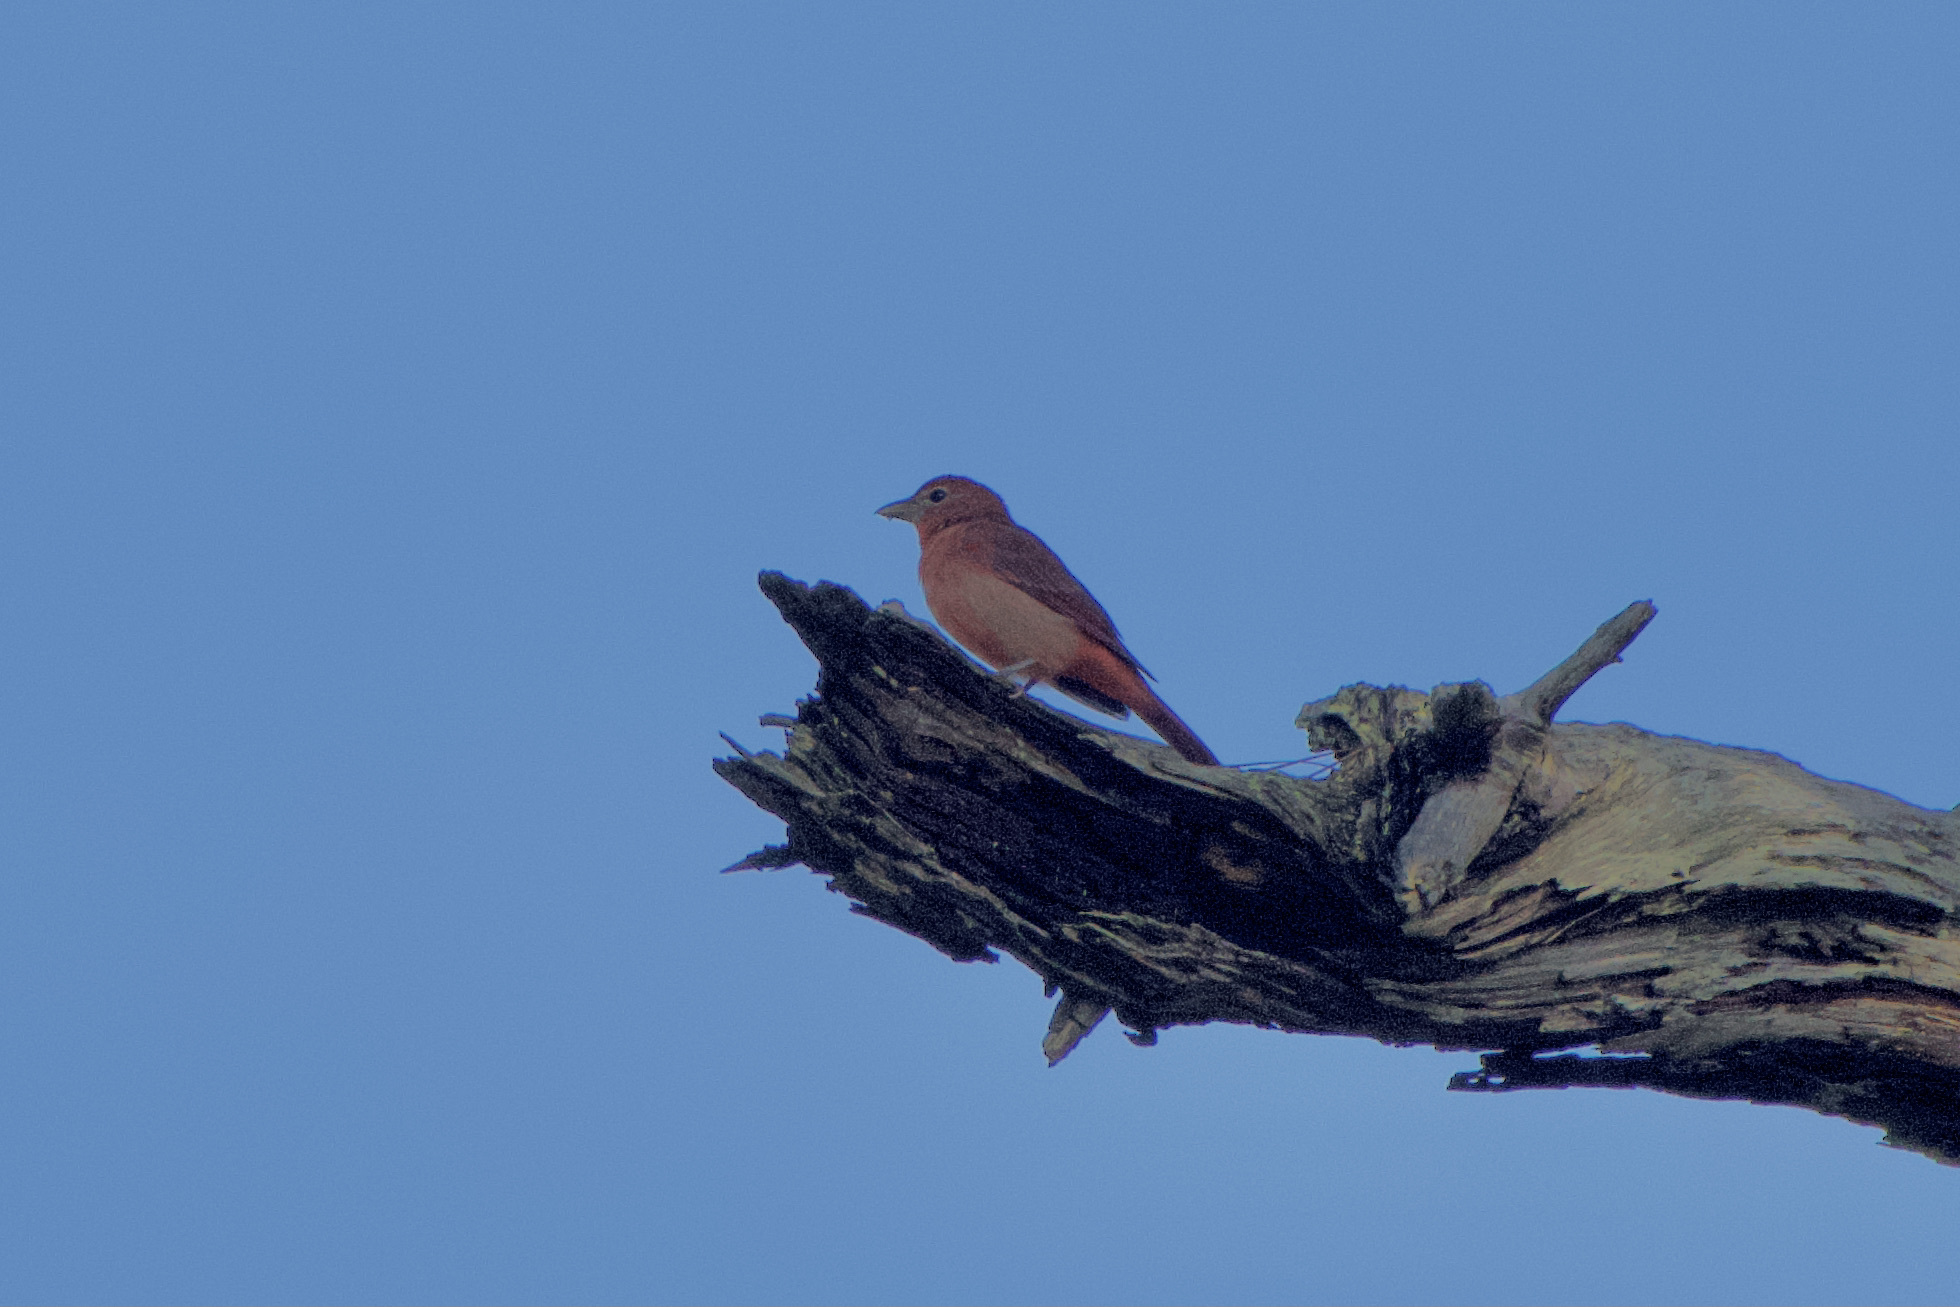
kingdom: Animalia
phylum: Chordata
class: Aves
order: Passeriformes
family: Cardinalidae
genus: Piranga
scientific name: Piranga rubra
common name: Summer tanager
